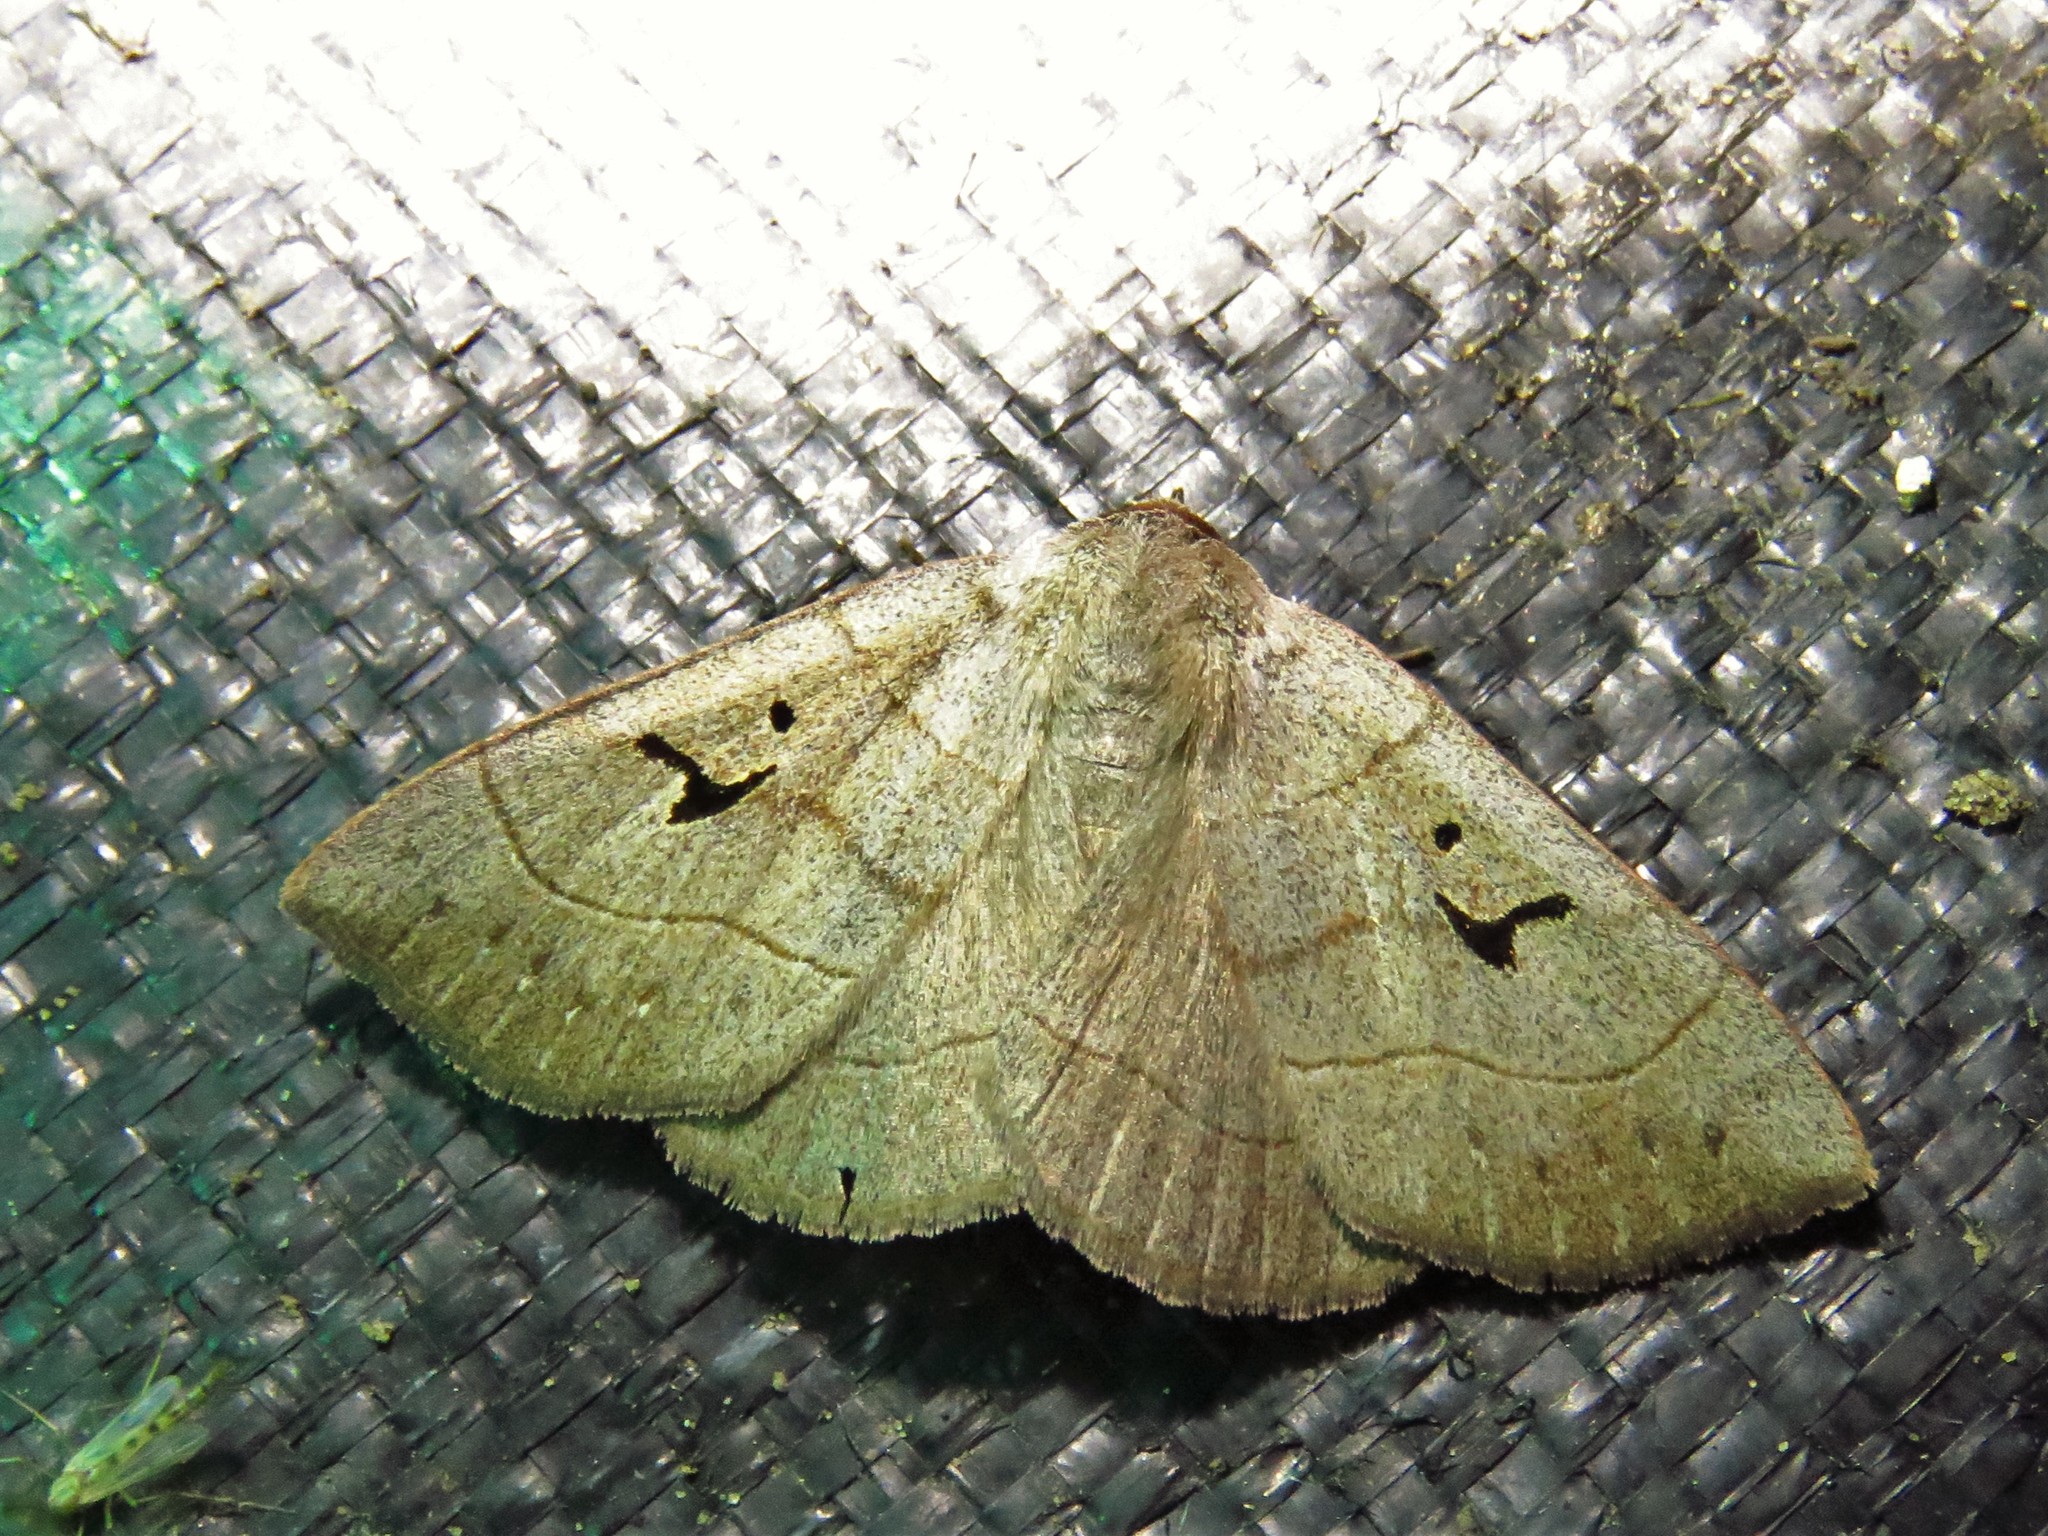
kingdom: Animalia
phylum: Arthropoda
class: Insecta
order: Lepidoptera
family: Erebidae
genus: Panopoda
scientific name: Panopoda carneicosta
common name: Brown panopoda moth
